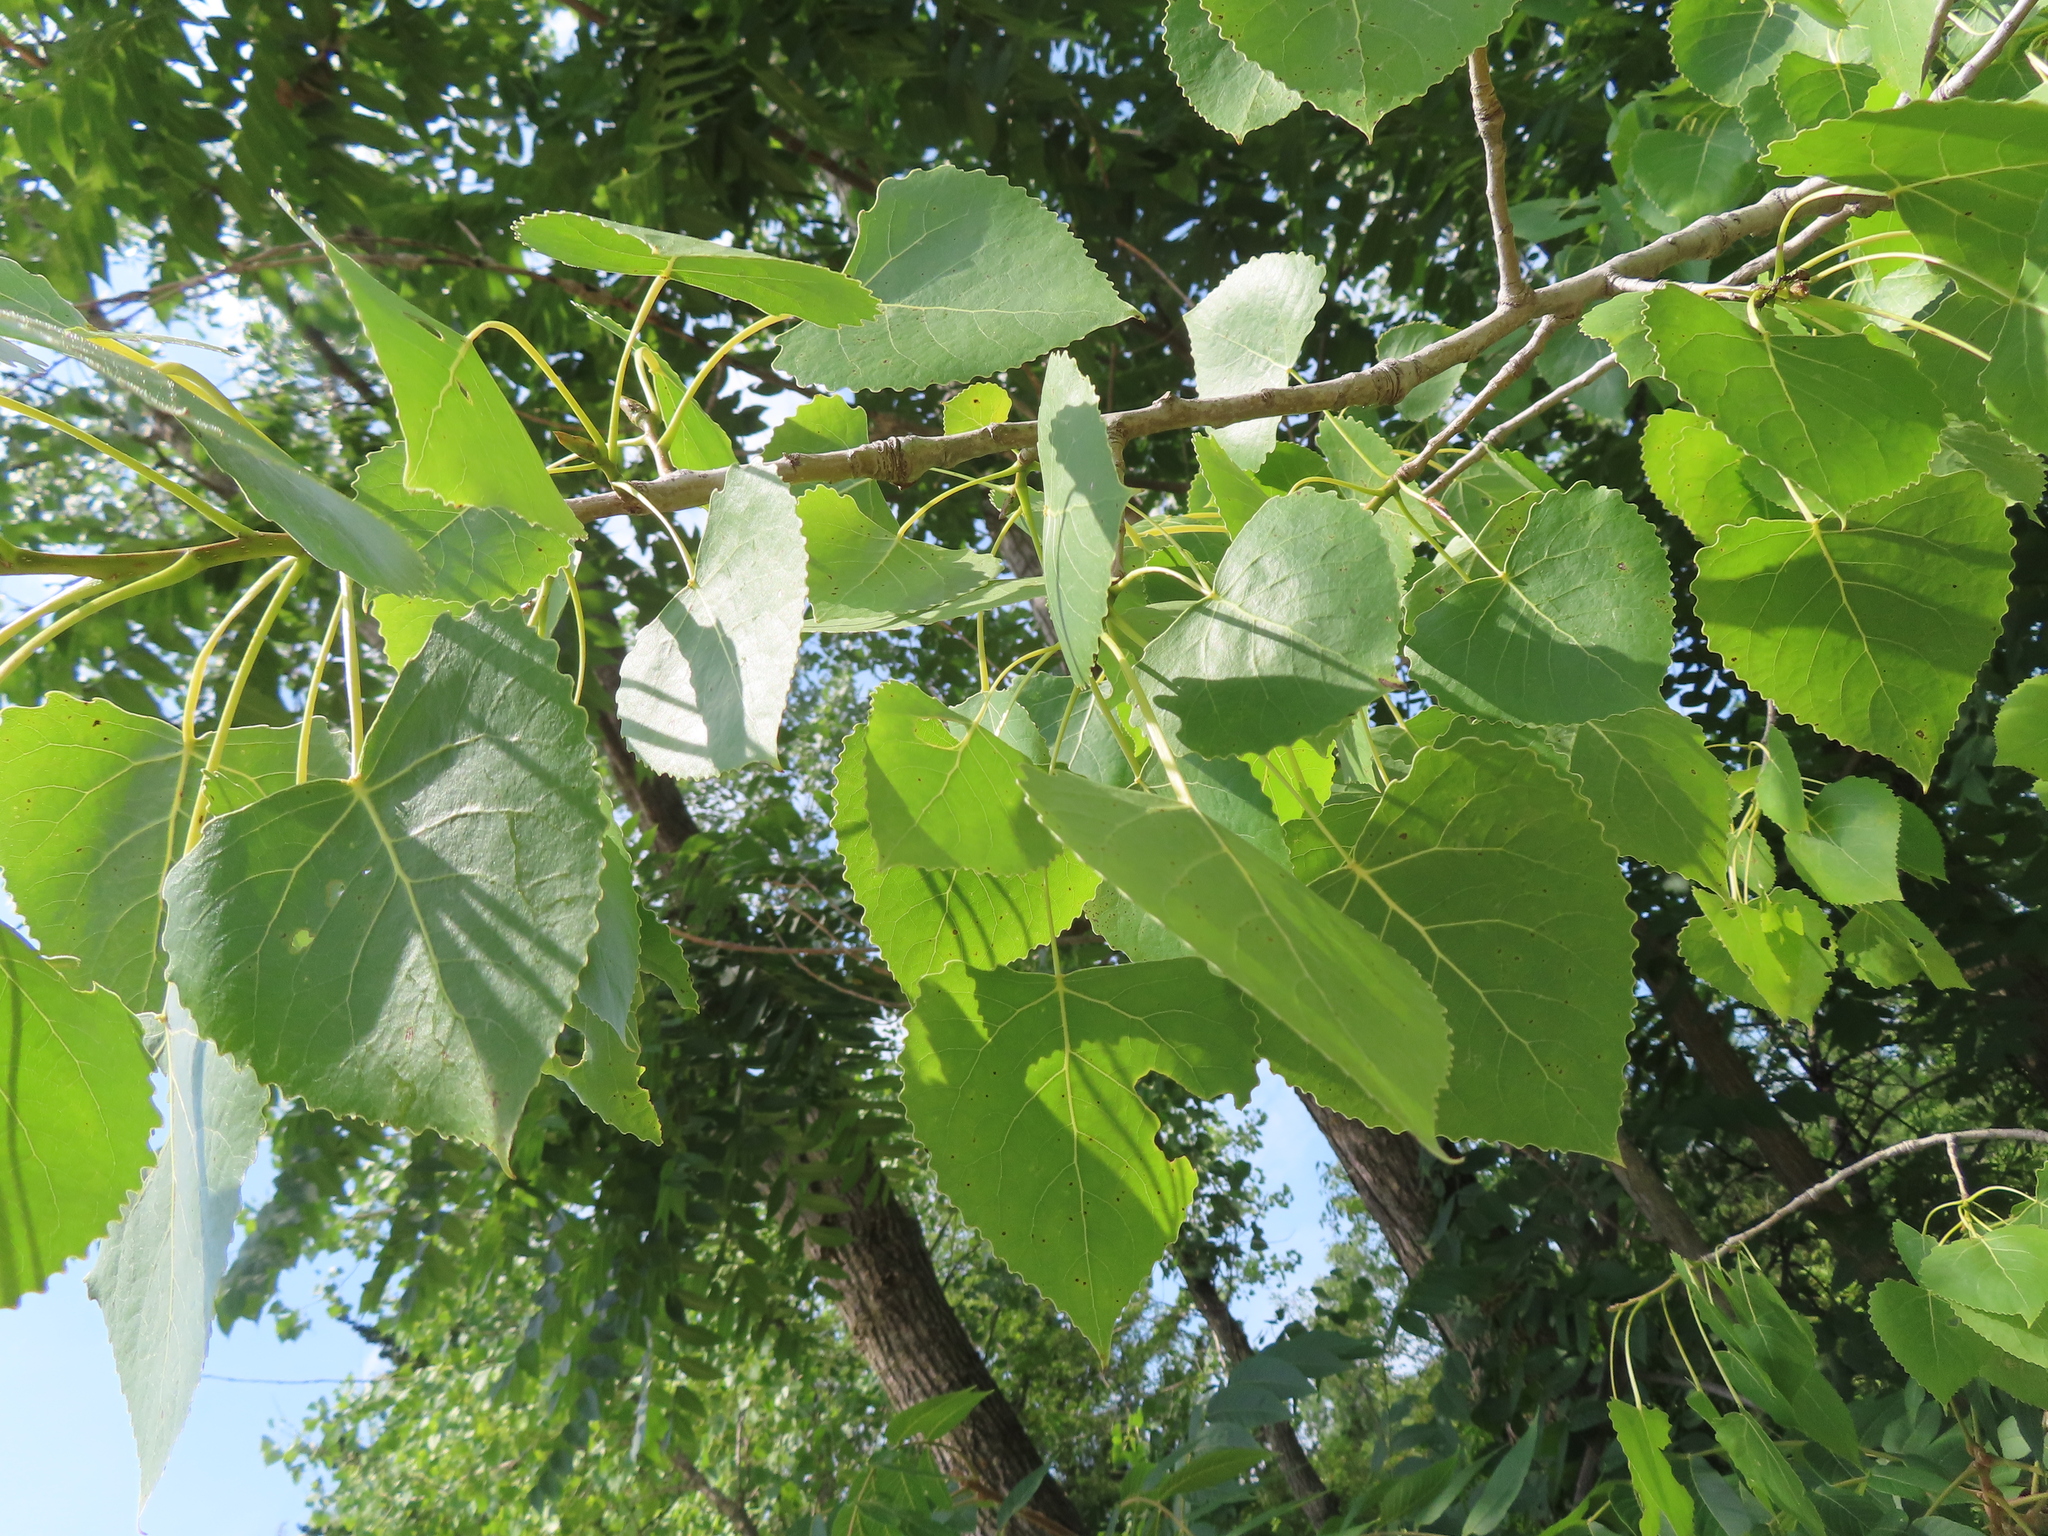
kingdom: Plantae
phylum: Tracheophyta
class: Magnoliopsida
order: Malpighiales
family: Salicaceae
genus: Populus
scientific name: Populus deltoides
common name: Eastern cottonwood
